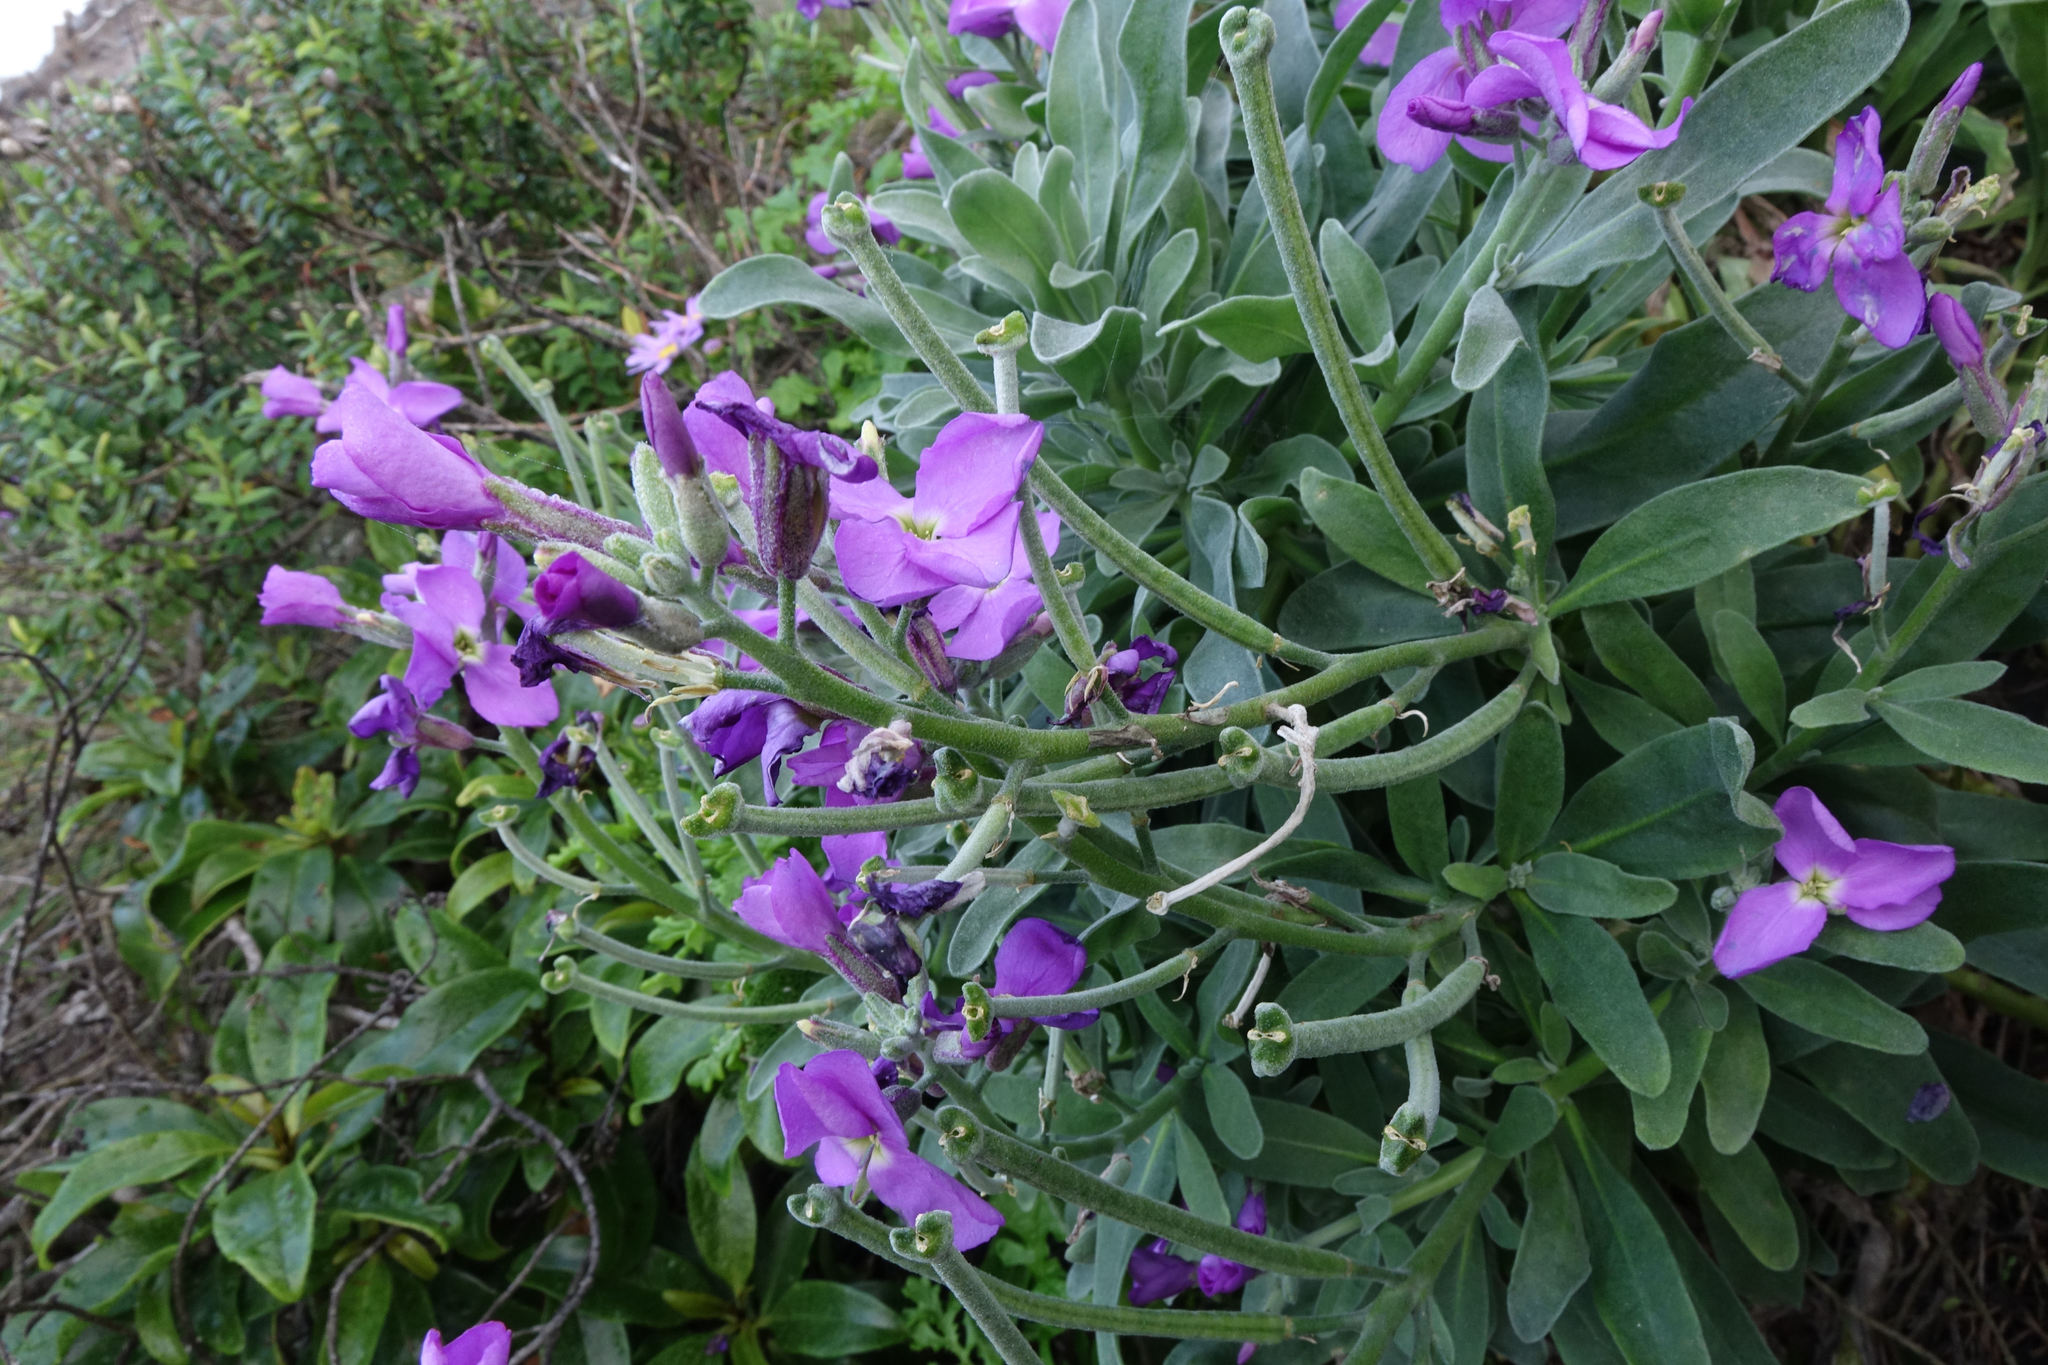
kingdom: Plantae
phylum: Tracheophyta
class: Magnoliopsida
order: Brassicales
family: Brassicaceae
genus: Matthiola
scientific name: Matthiola incana
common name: Hoary stock
